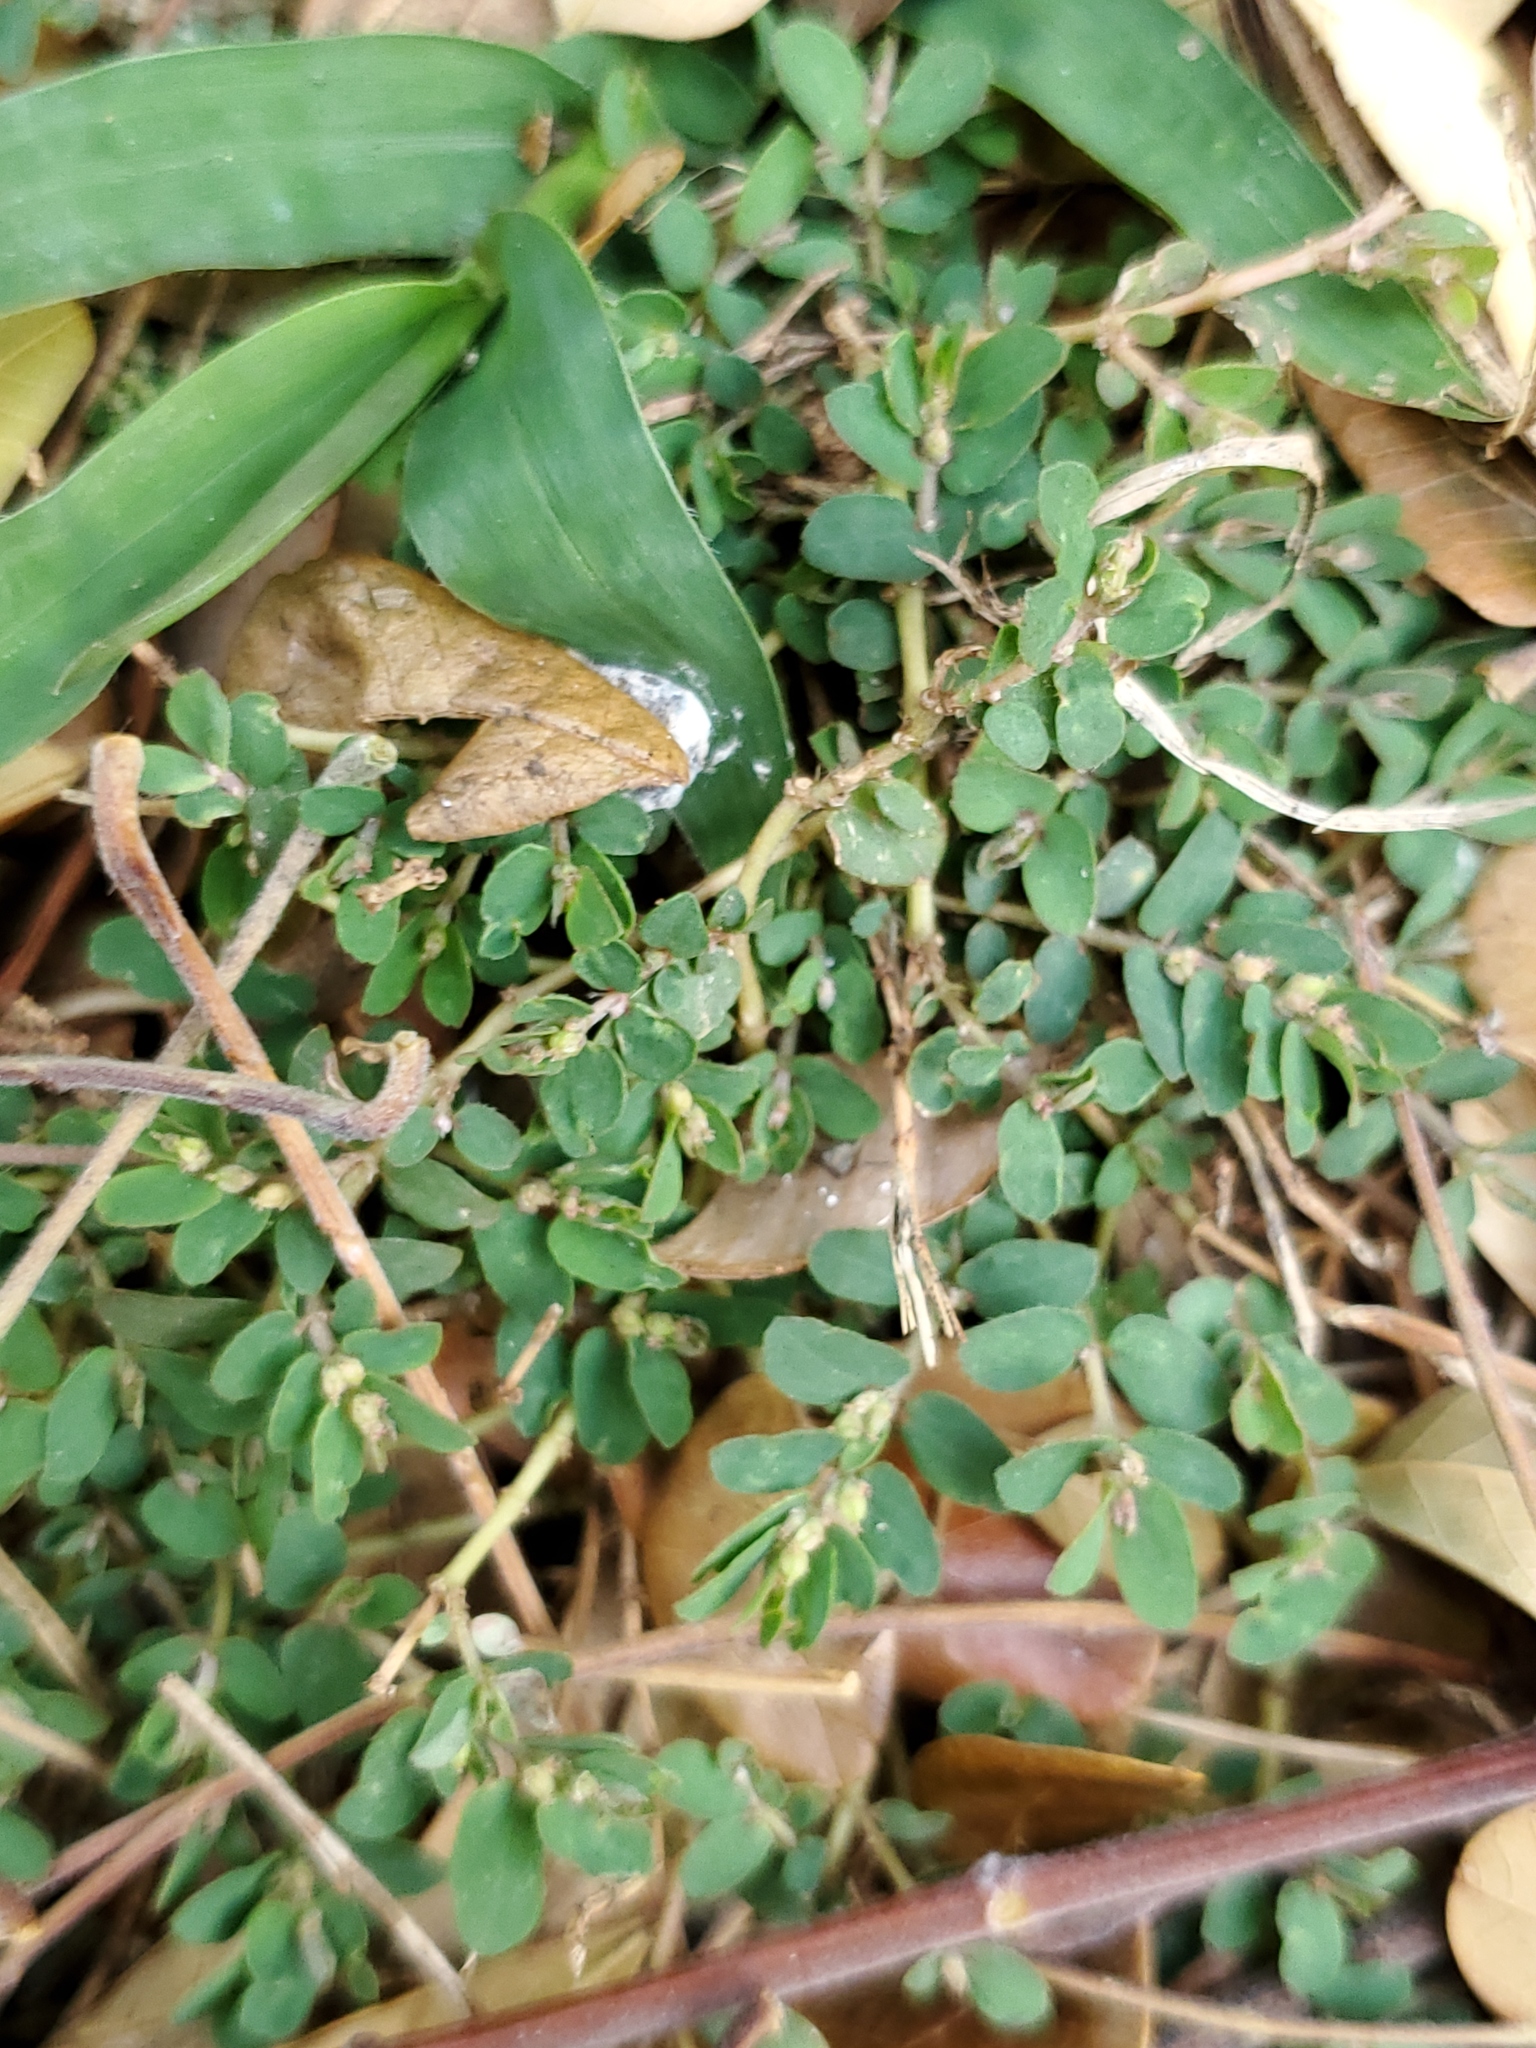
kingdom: Plantae
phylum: Tracheophyta
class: Magnoliopsida
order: Malpighiales
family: Euphorbiaceae
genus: Euphorbia
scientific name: Euphorbia thymifolia
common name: Gulf sandmat
